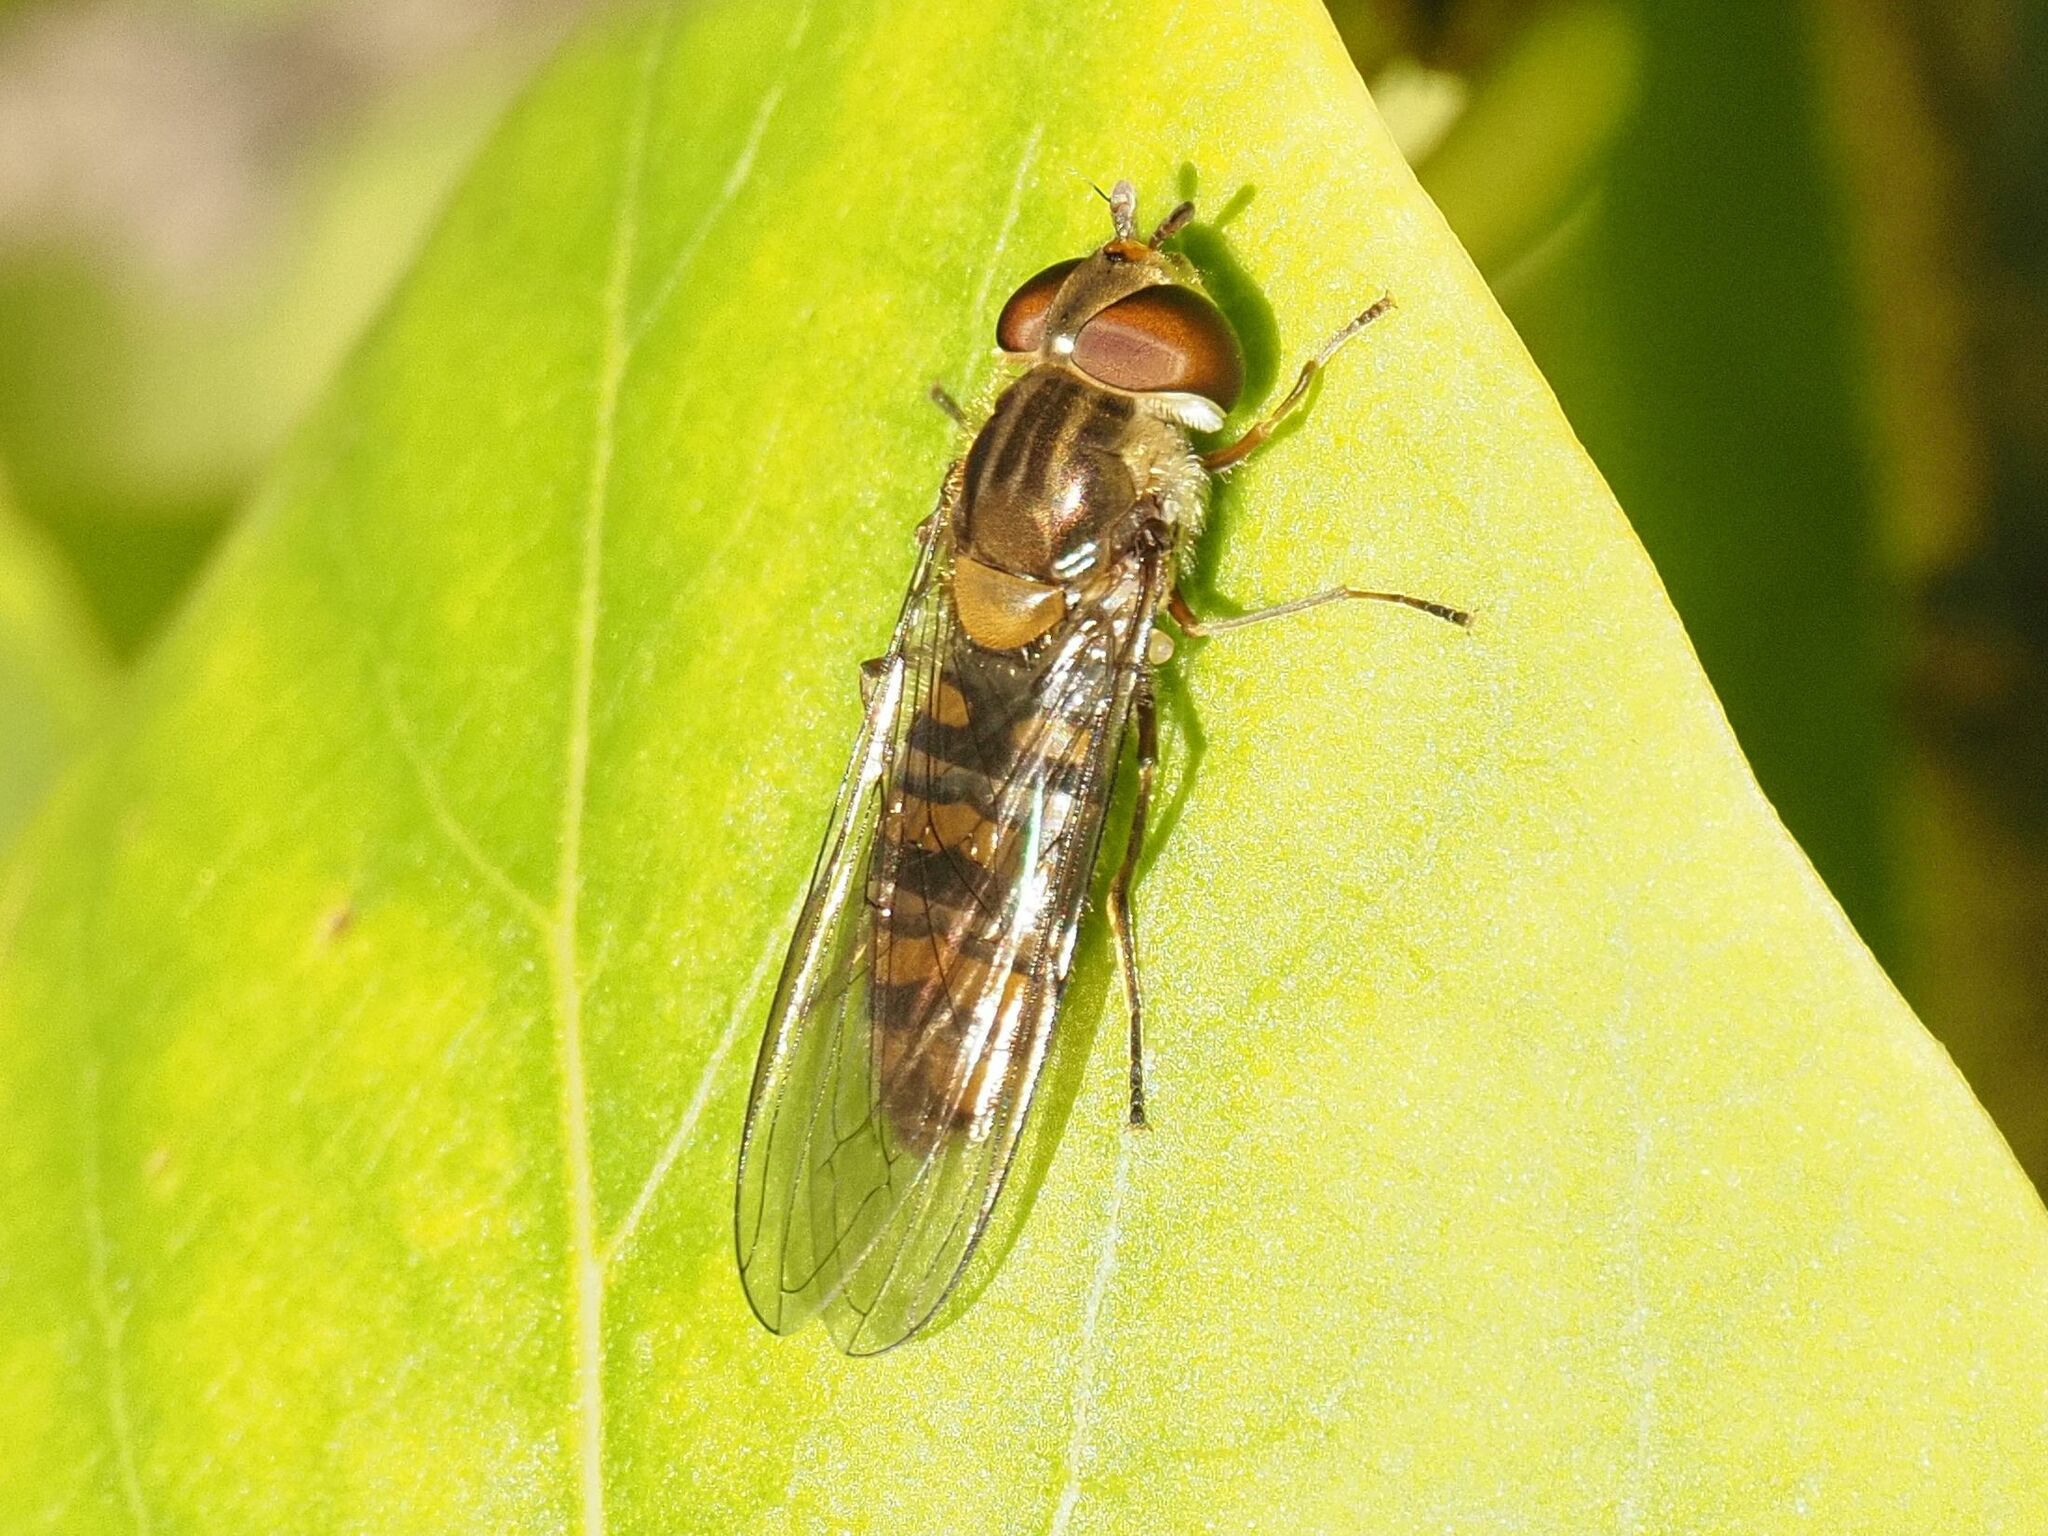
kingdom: Animalia
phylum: Arthropoda
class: Insecta
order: Diptera
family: Syrphidae
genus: Episyrphus
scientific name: Episyrphus balteatus
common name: Marmalade hoverfly
